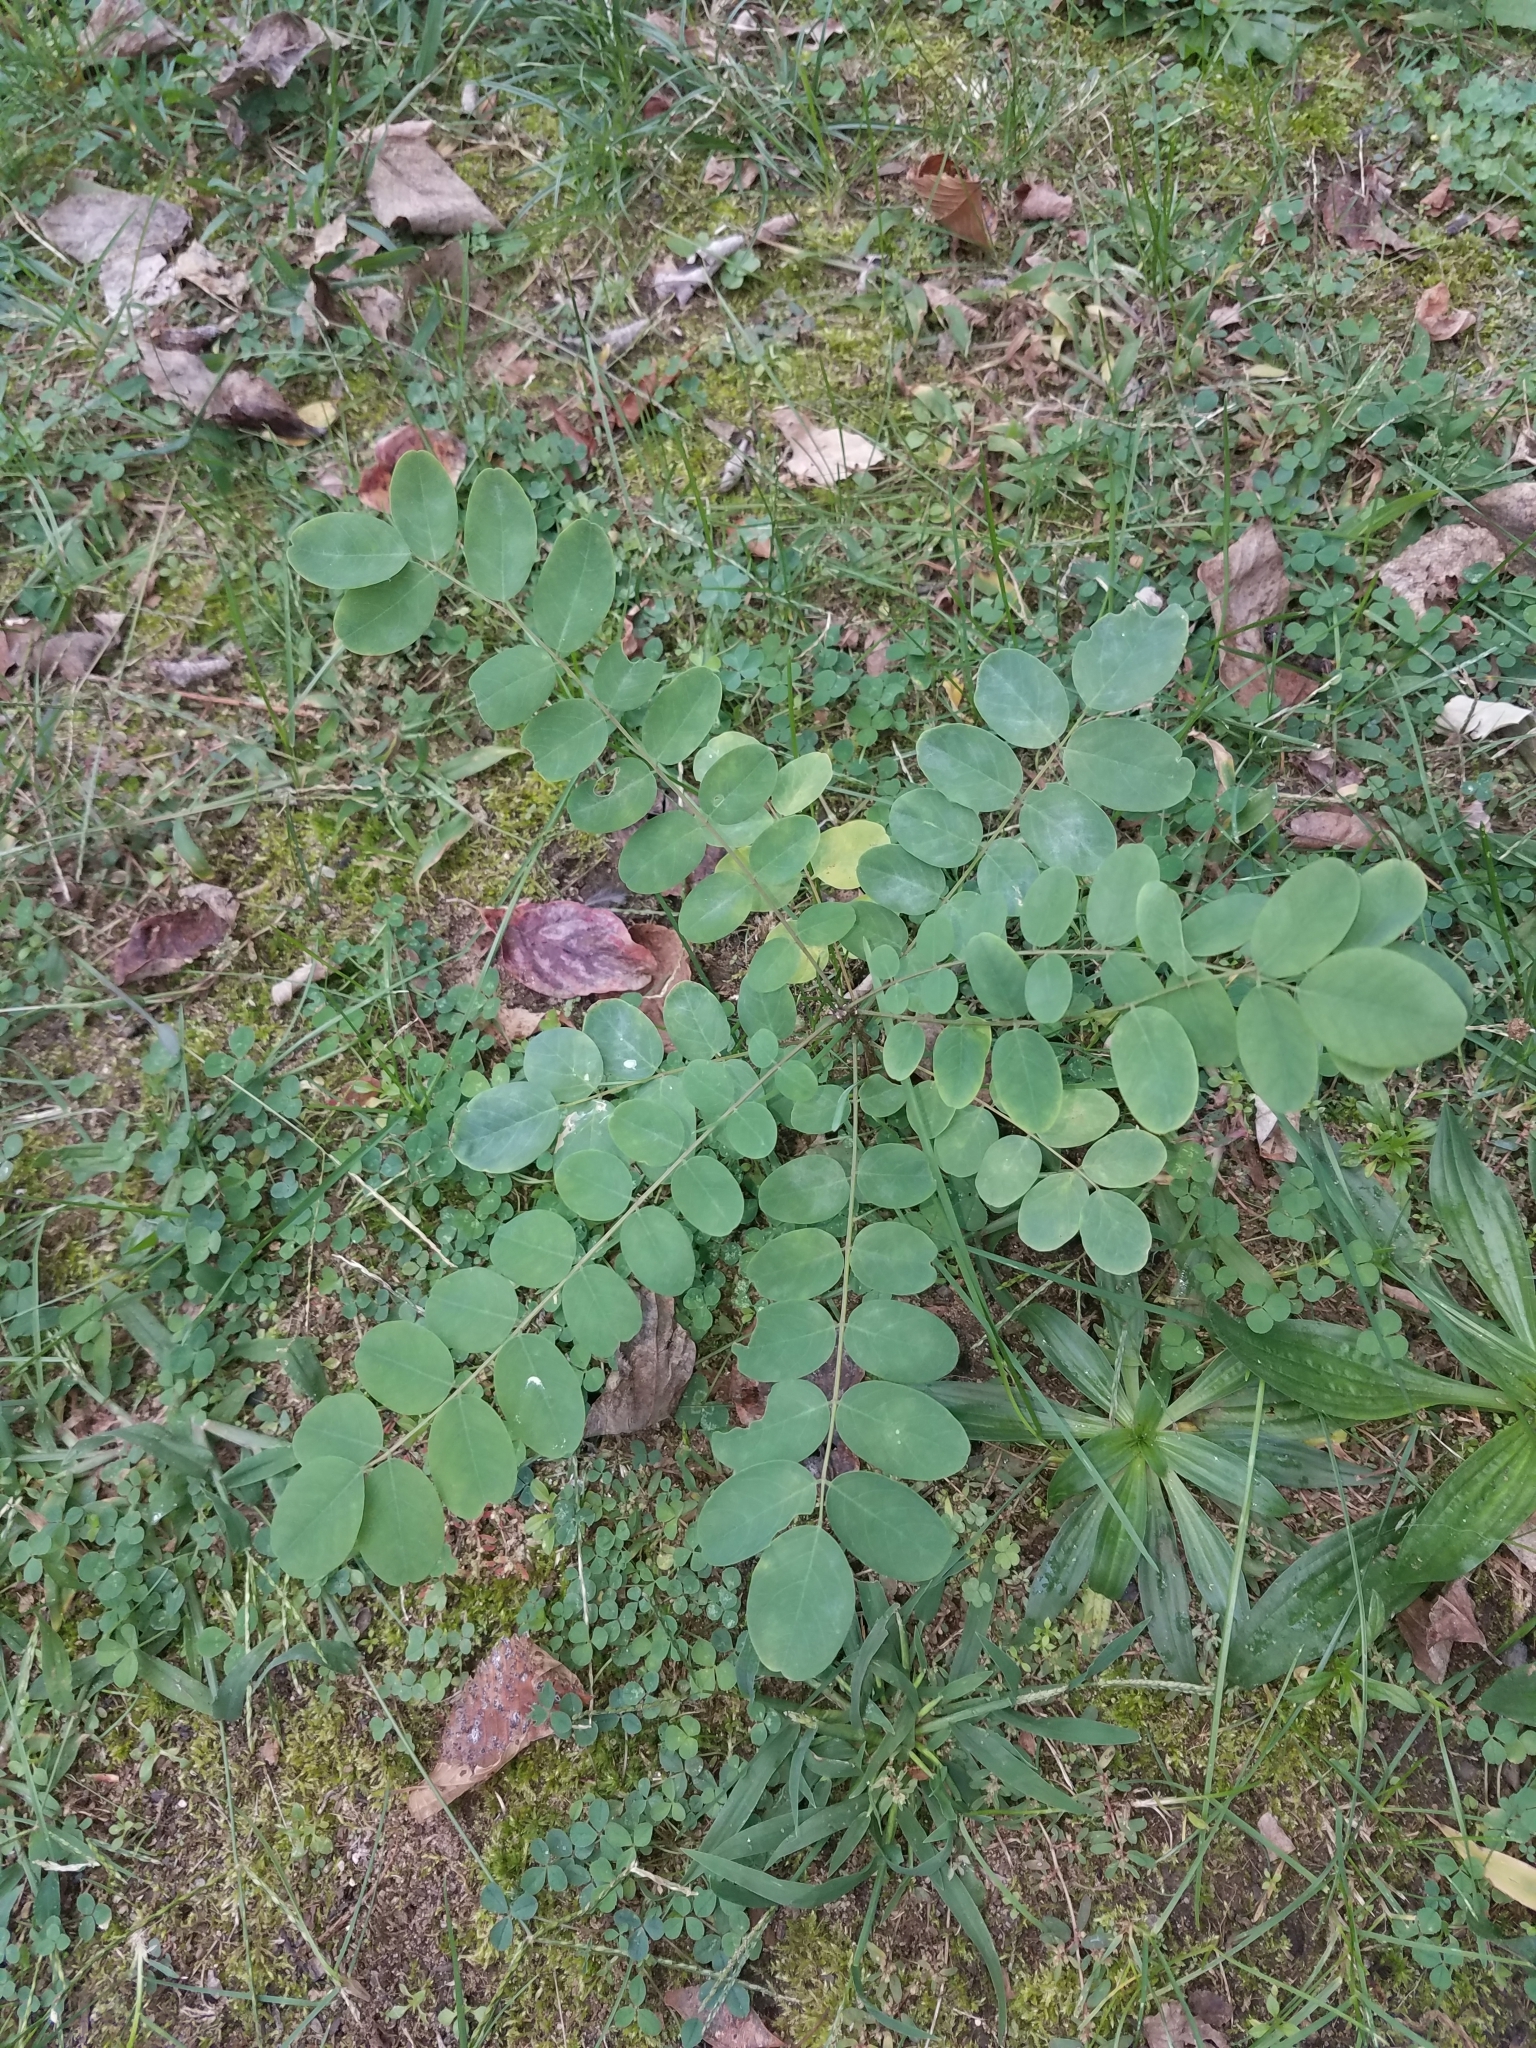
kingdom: Plantae
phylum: Tracheophyta
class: Magnoliopsida
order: Fabales
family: Fabaceae
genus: Robinia
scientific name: Robinia pseudoacacia
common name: Black locust
